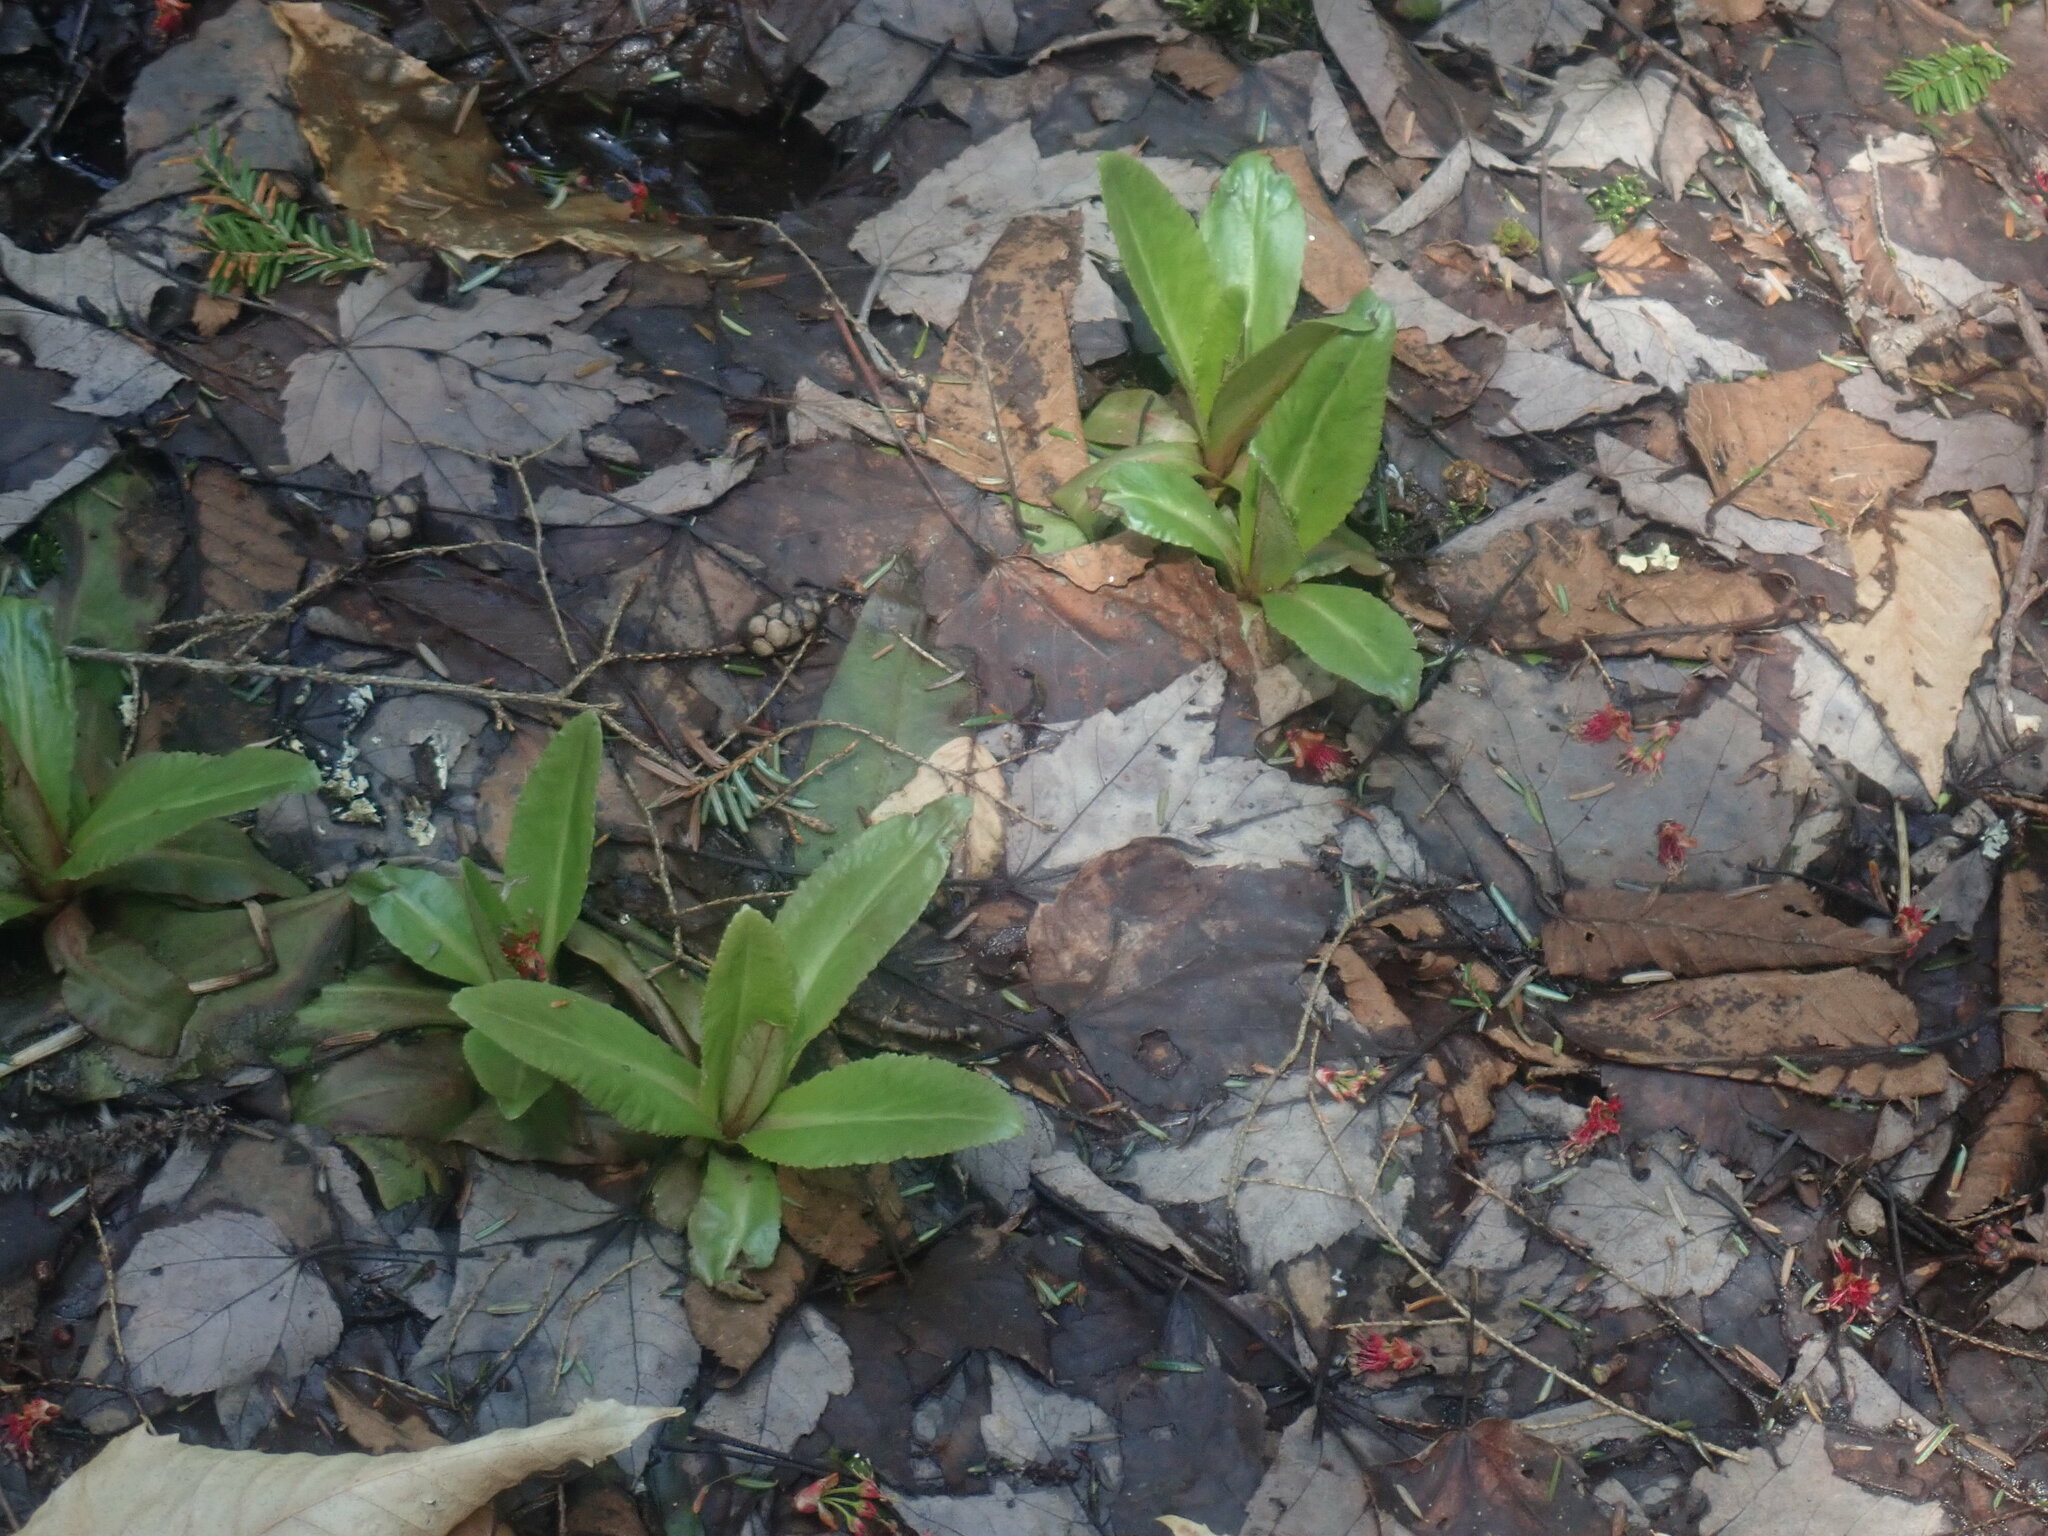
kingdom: Plantae
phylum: Tracheophyta
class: Magnoliopsida
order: Saxifragales
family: Saxifragaceae
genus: Micranthes
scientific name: Micranthes pensylvanica
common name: Marsh saxifrage
